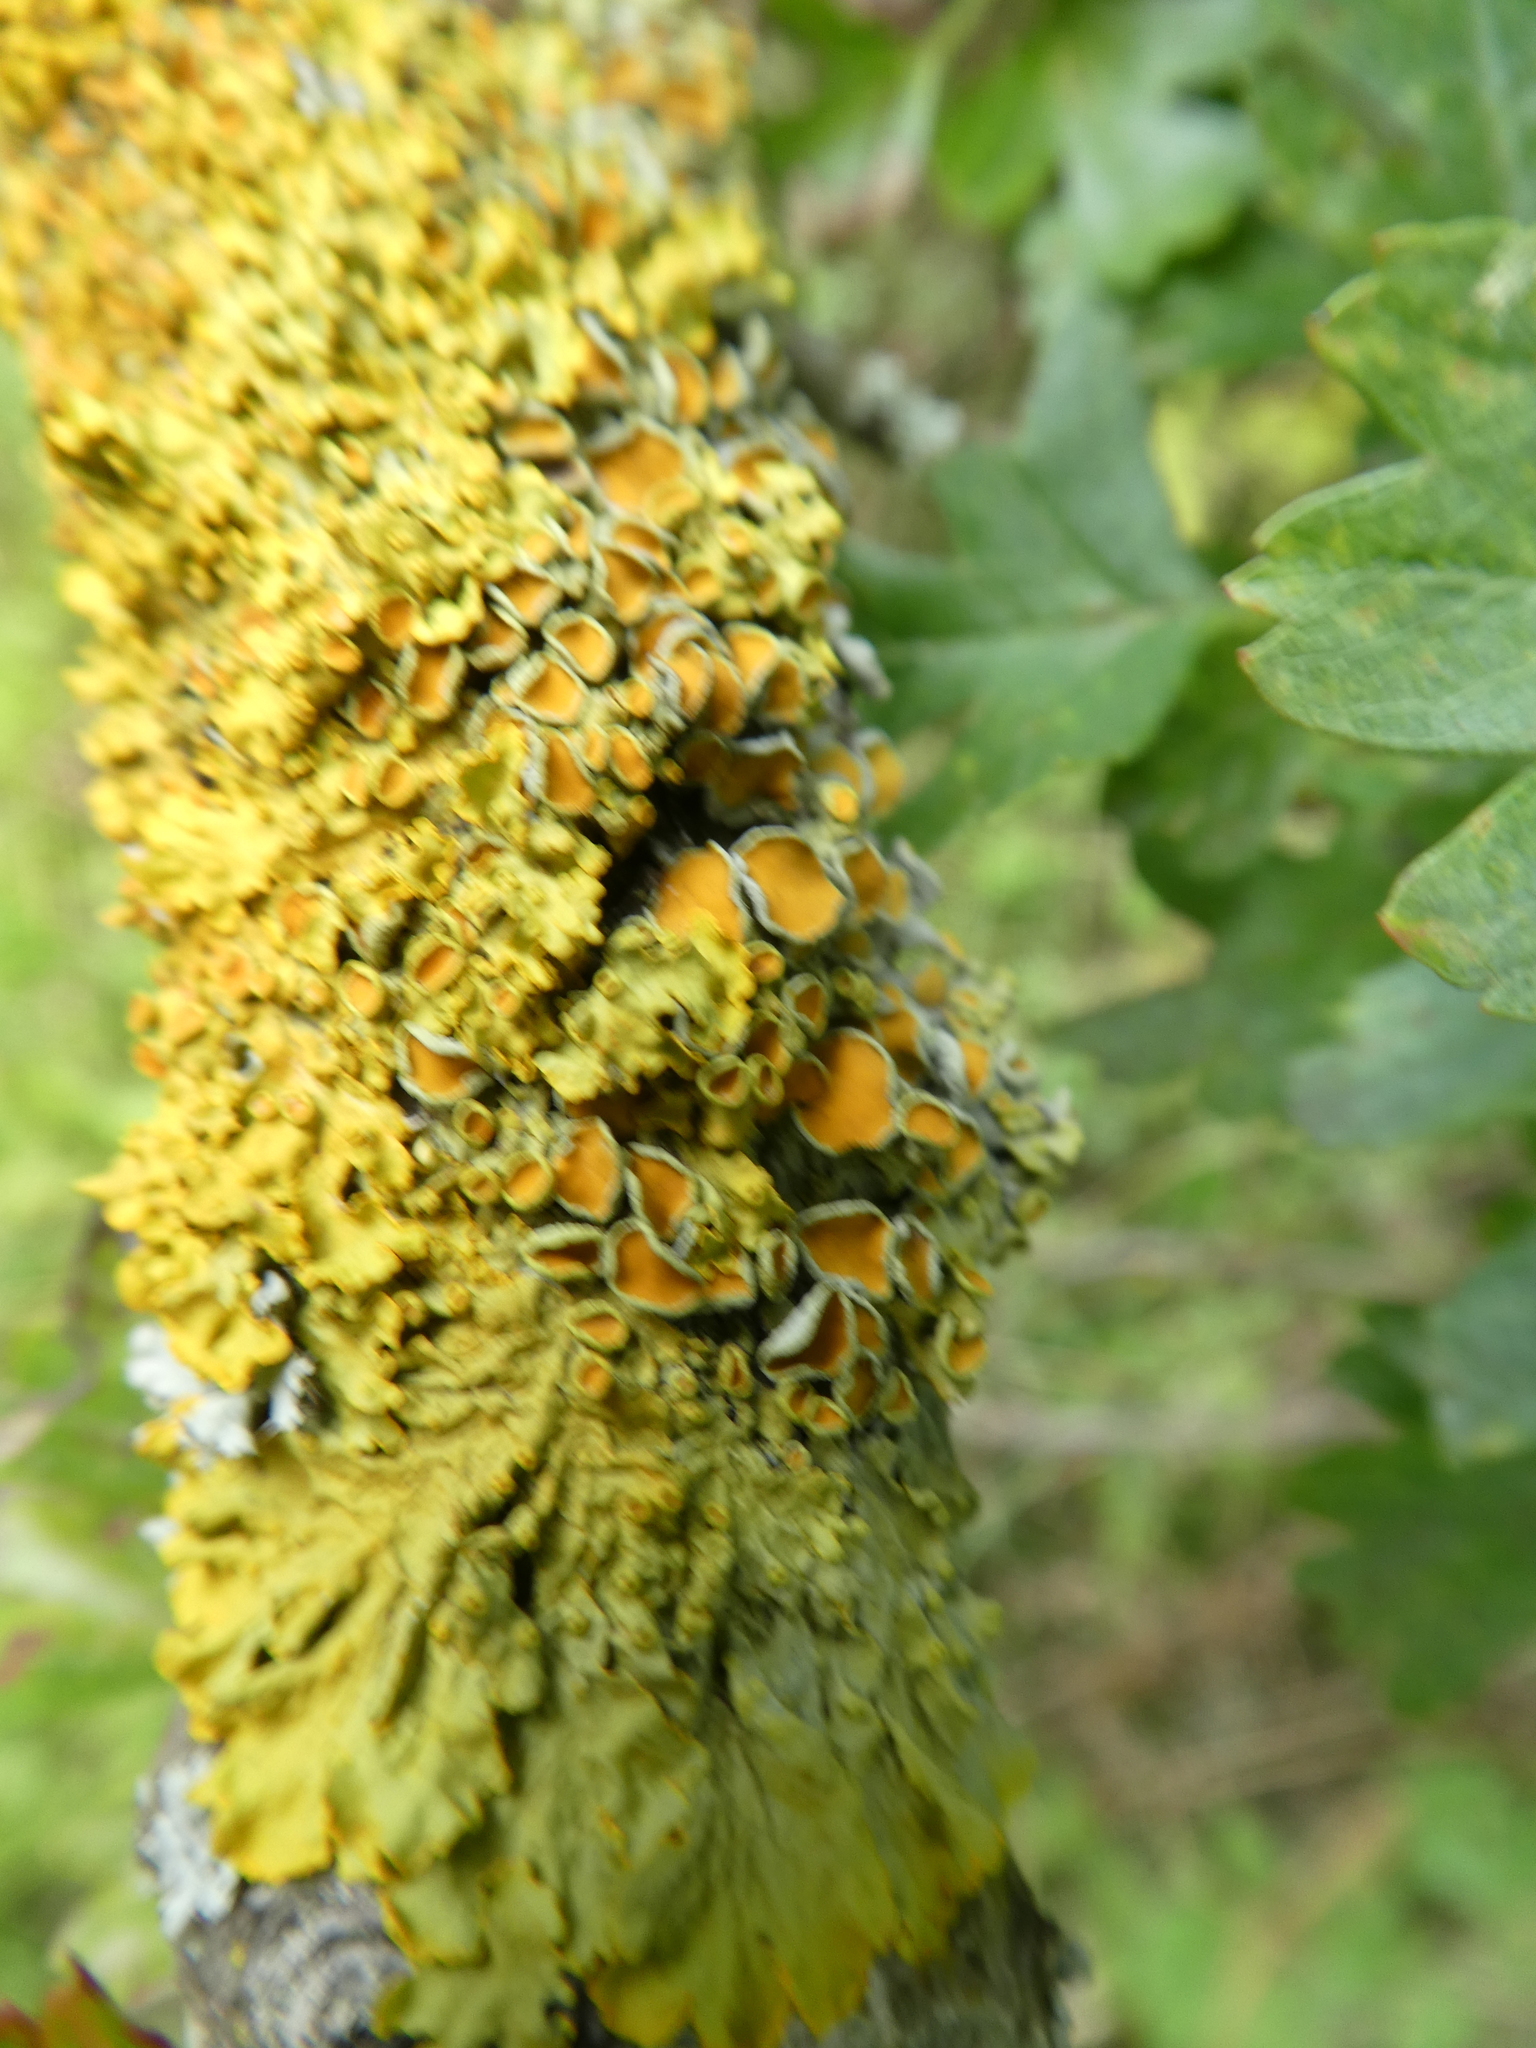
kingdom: Fungi
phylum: Ascomycota
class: Lecanoromycetes
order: Teloschistales
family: Teloschistaceae
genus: Xanthoria
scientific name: Xanthoria parietina
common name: Common orange lichen
